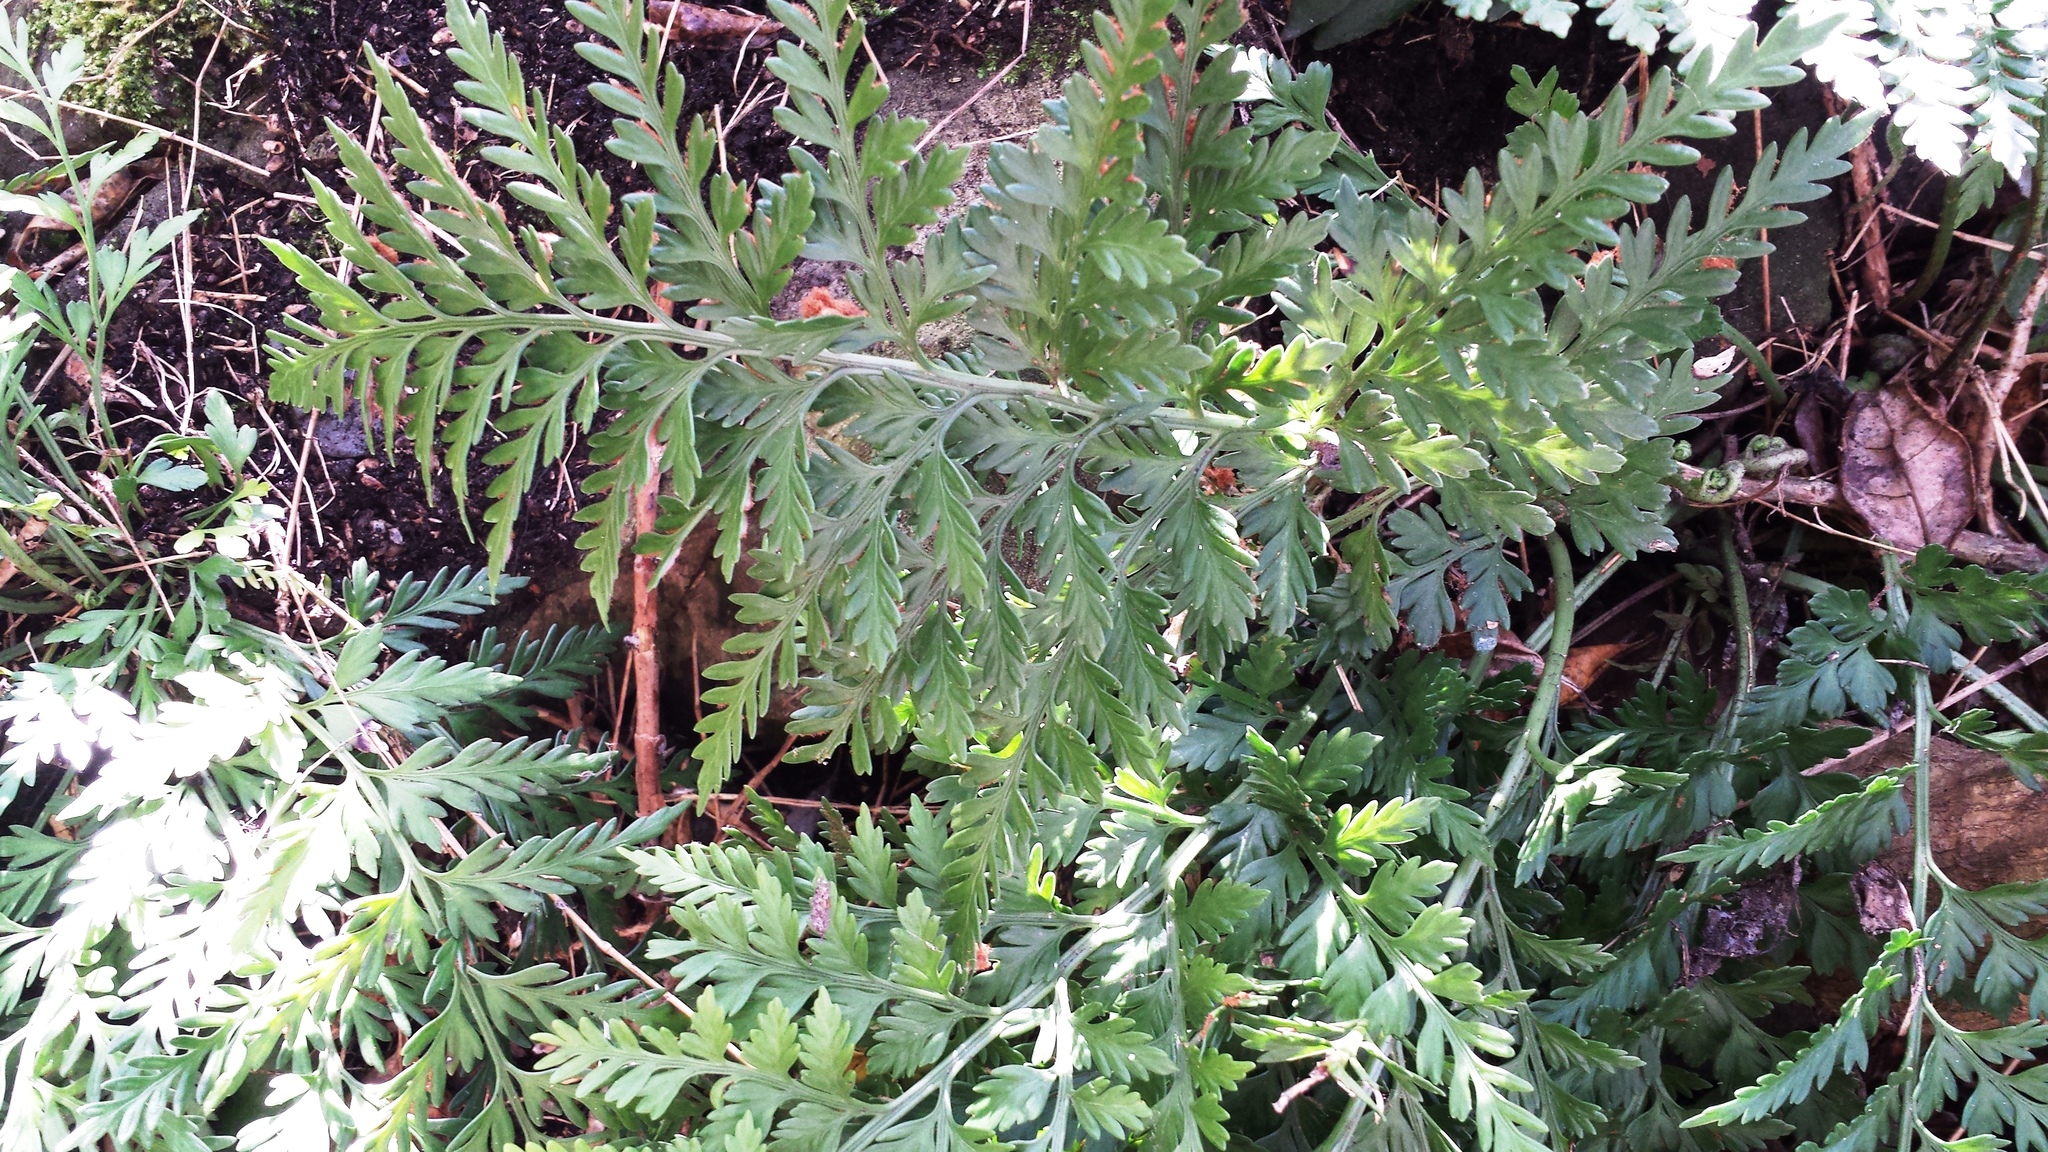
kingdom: Plantae
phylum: Tracheophyta
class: Polypodiopsida
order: Polypodiales
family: Aspleniaceae
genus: Asplenium
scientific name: Asplenium appendiculatum
